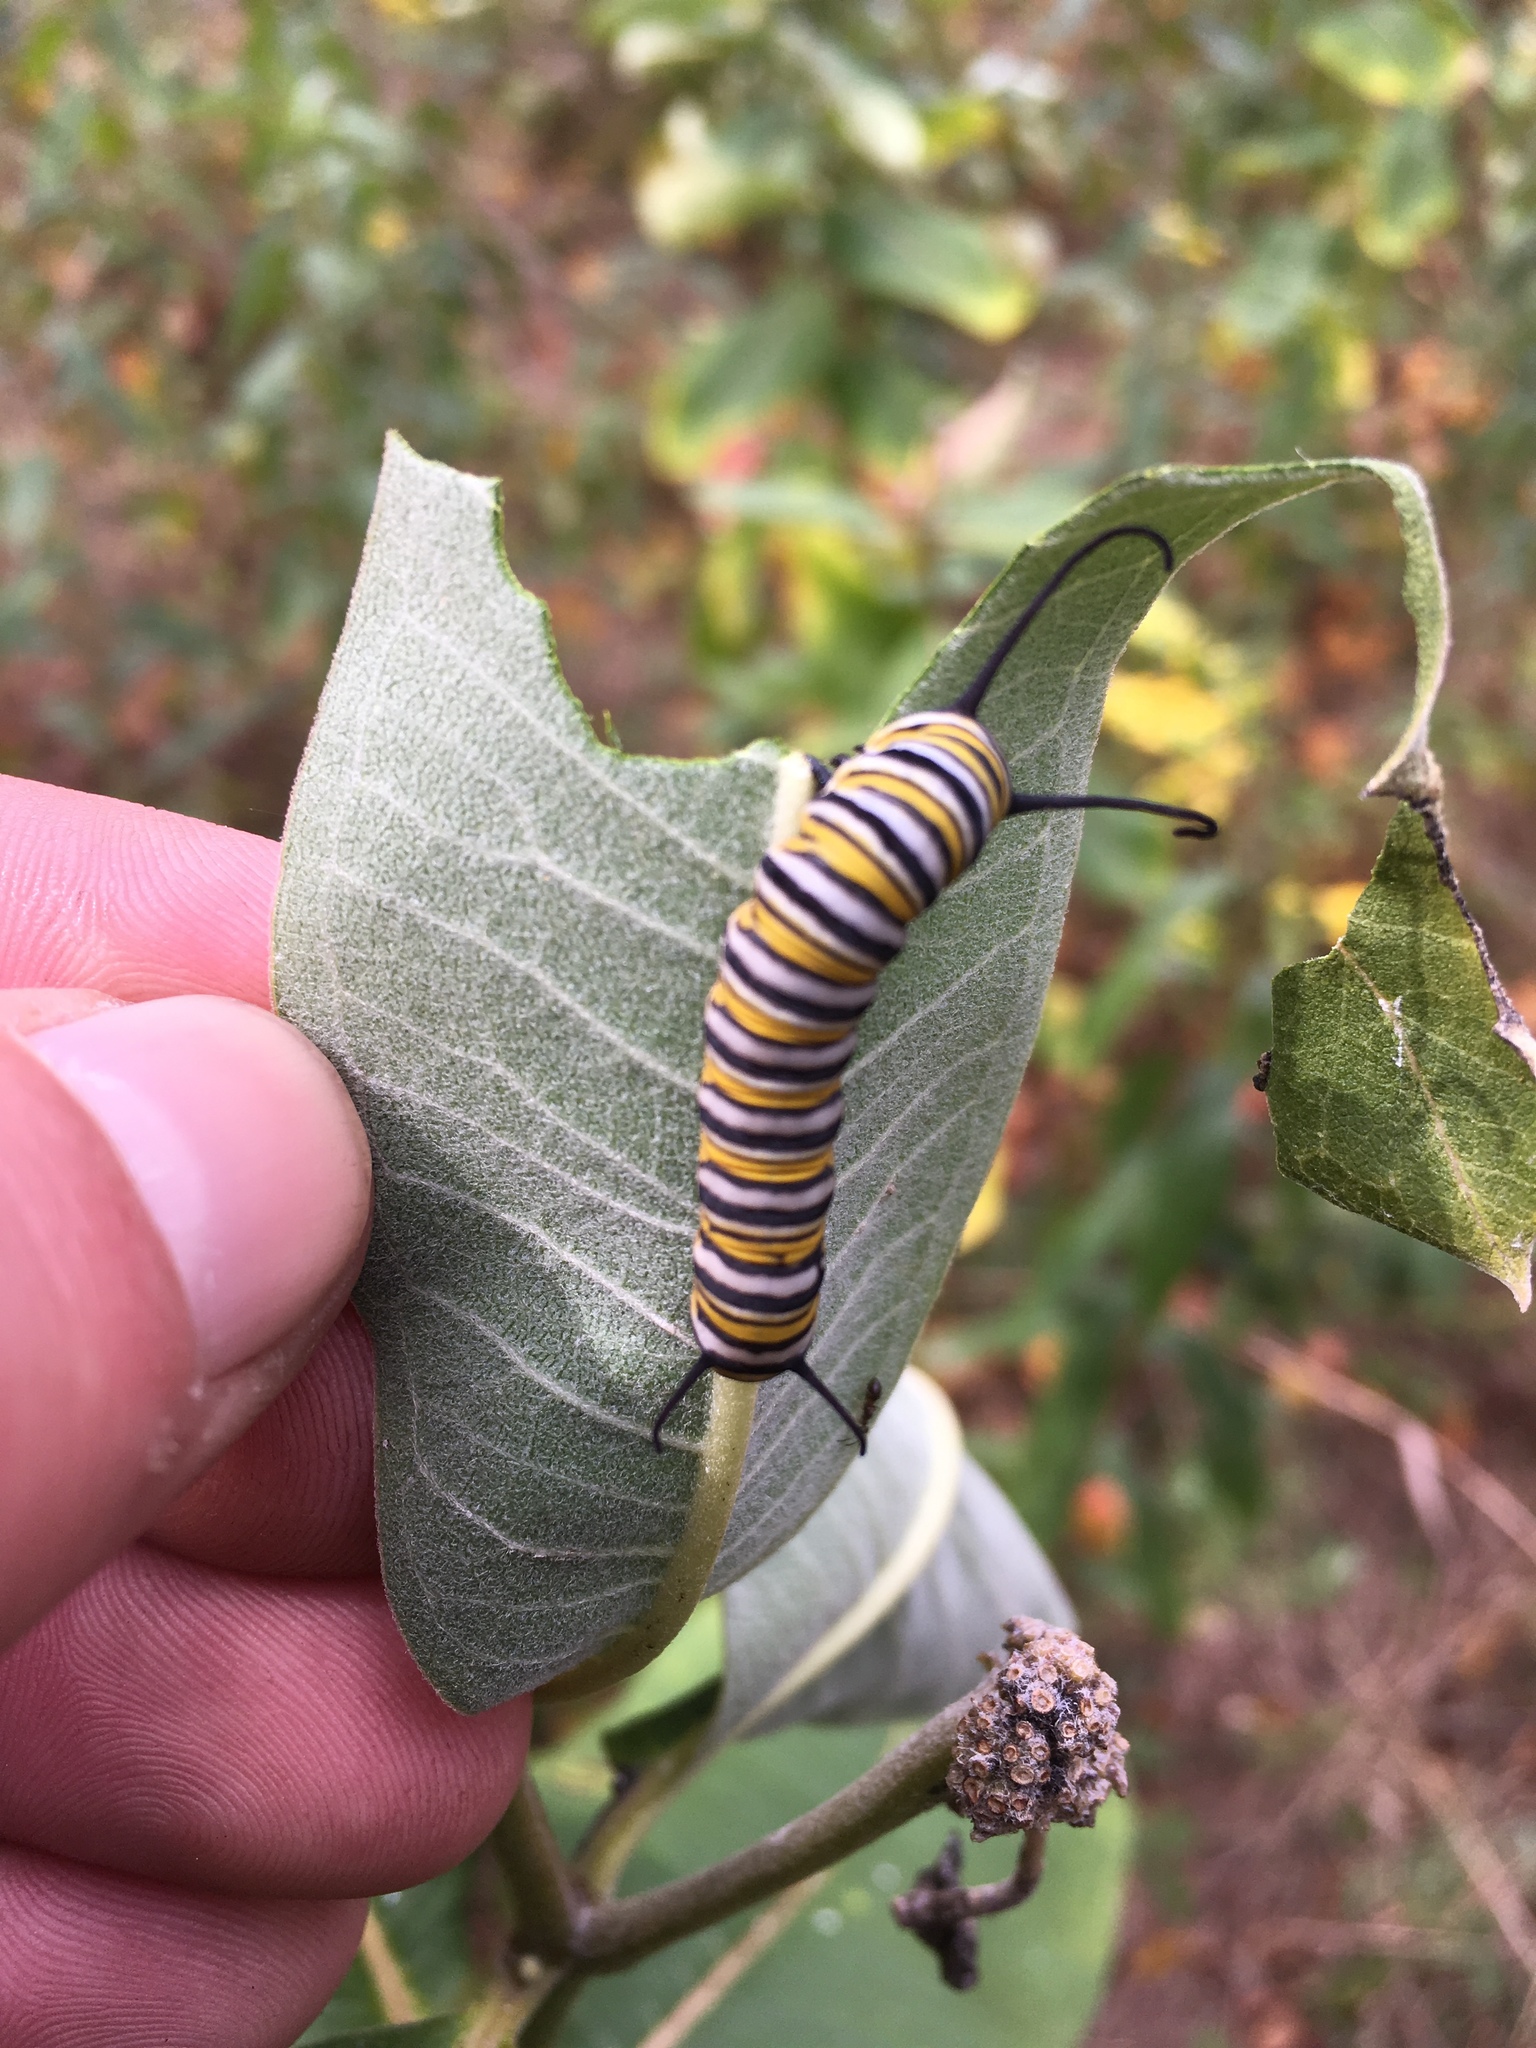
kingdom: Animalia
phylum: Arthropoda
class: Insecta
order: Lepidoptera
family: Nymphalidae
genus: Danaus
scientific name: Danaus plexippus
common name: Monarch
